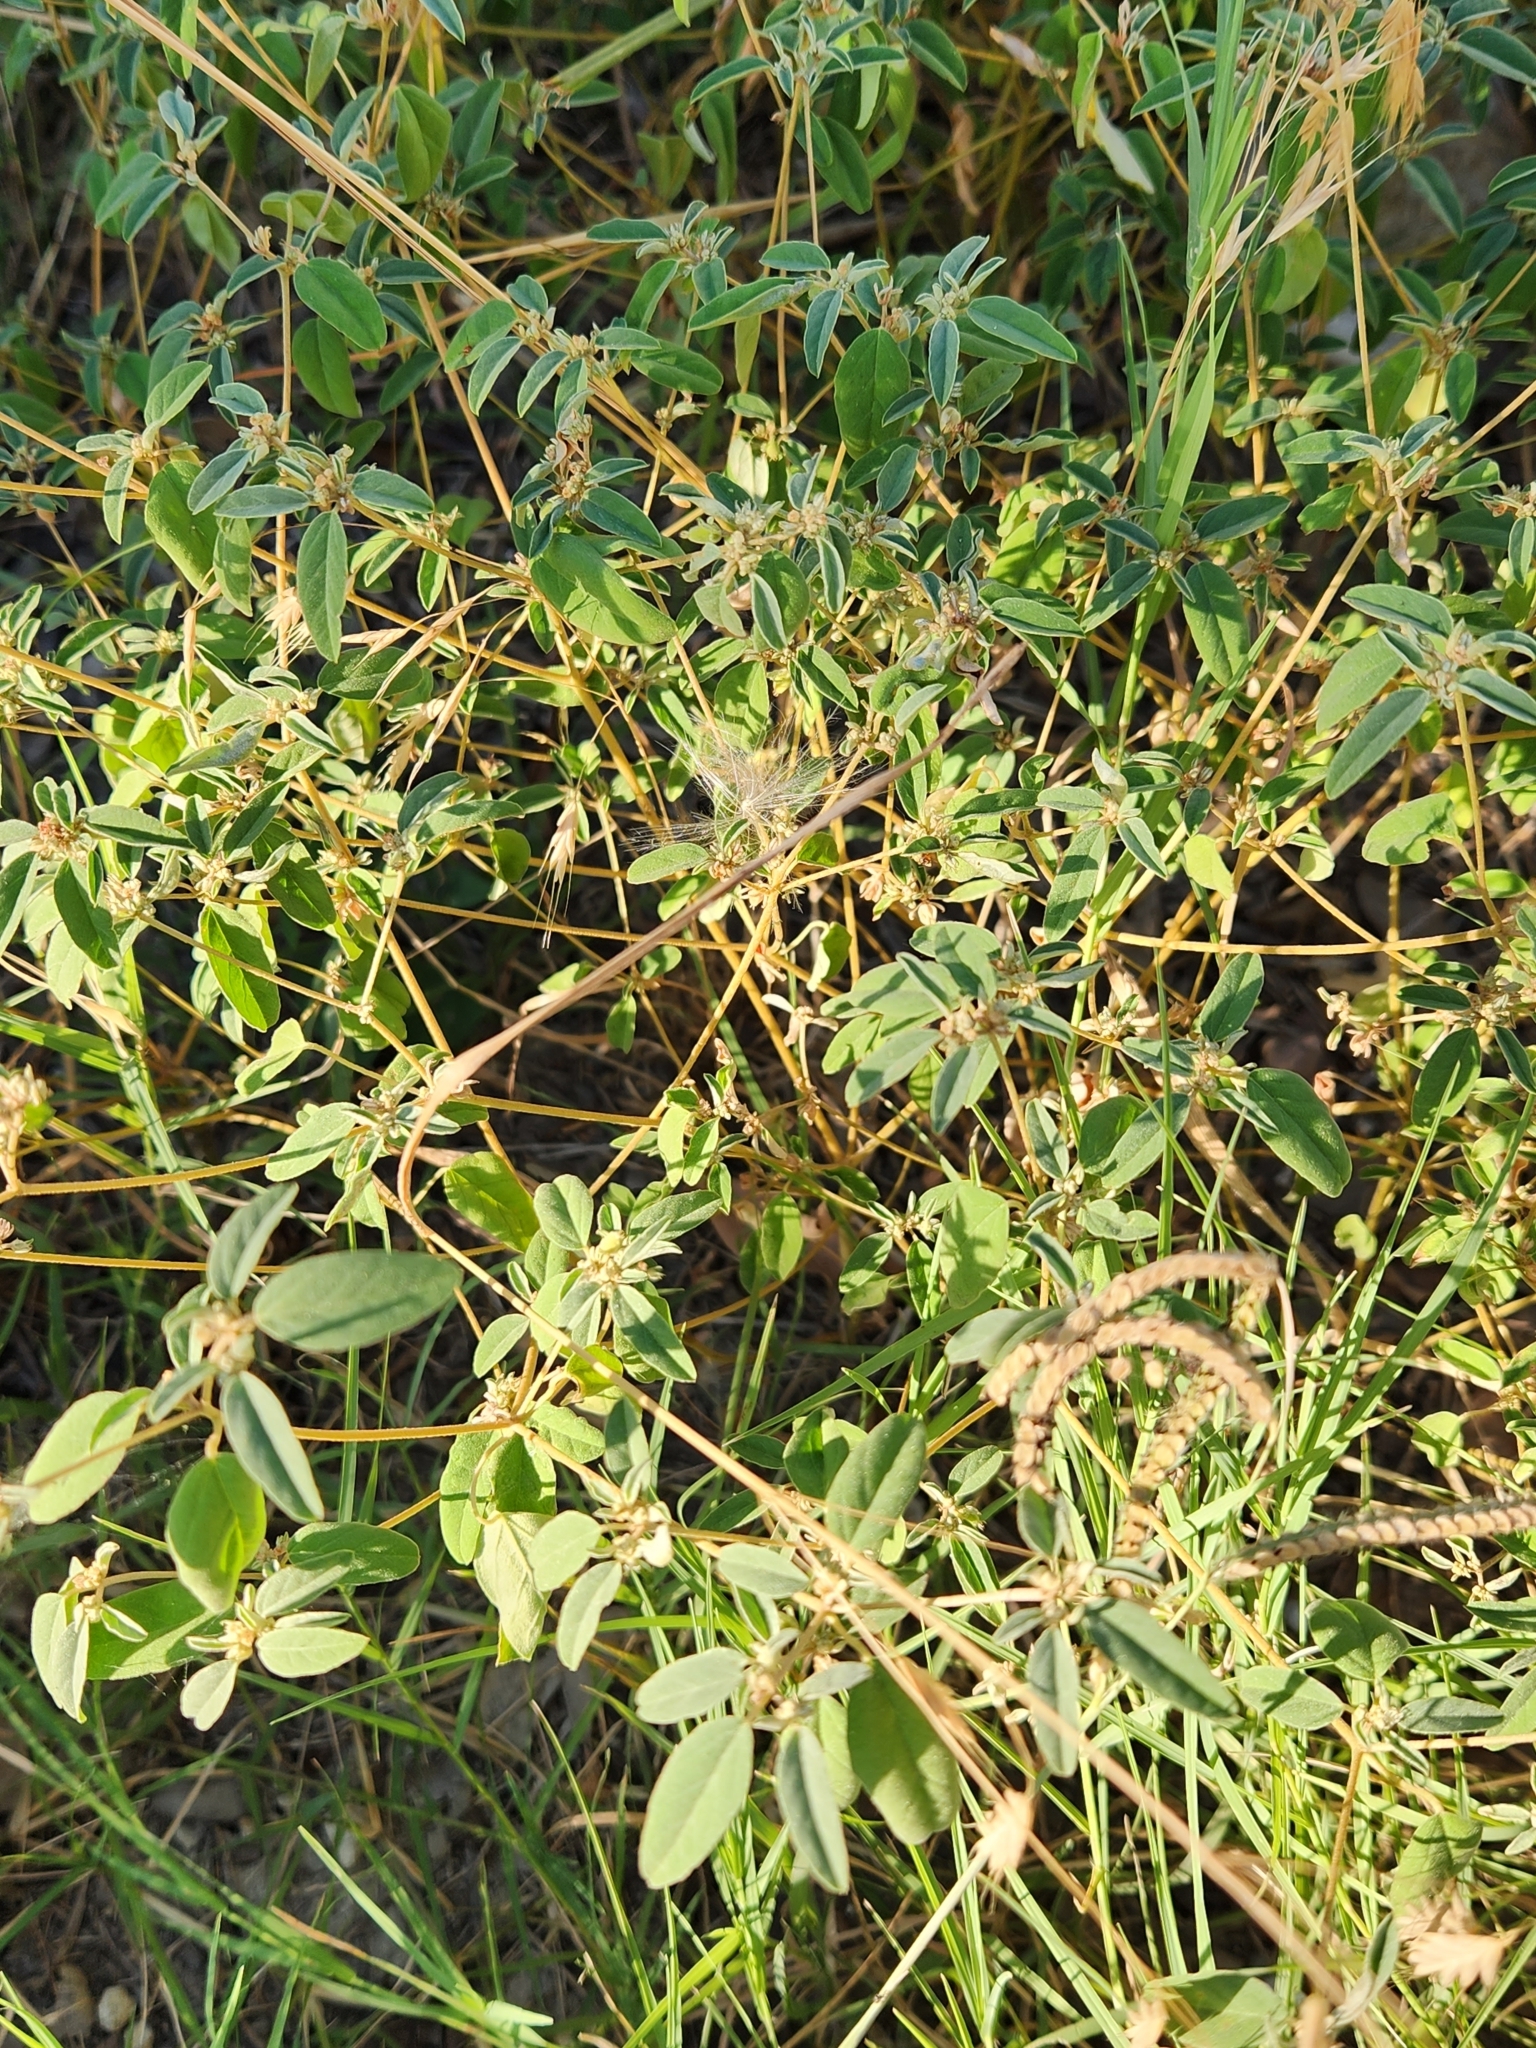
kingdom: Plantae
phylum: Tracheophyta
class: Magnoliopsida
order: Malpighiales
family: Euphorbiaceae
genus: Croton
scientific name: Croton monanthogynus
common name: One-seed croton
